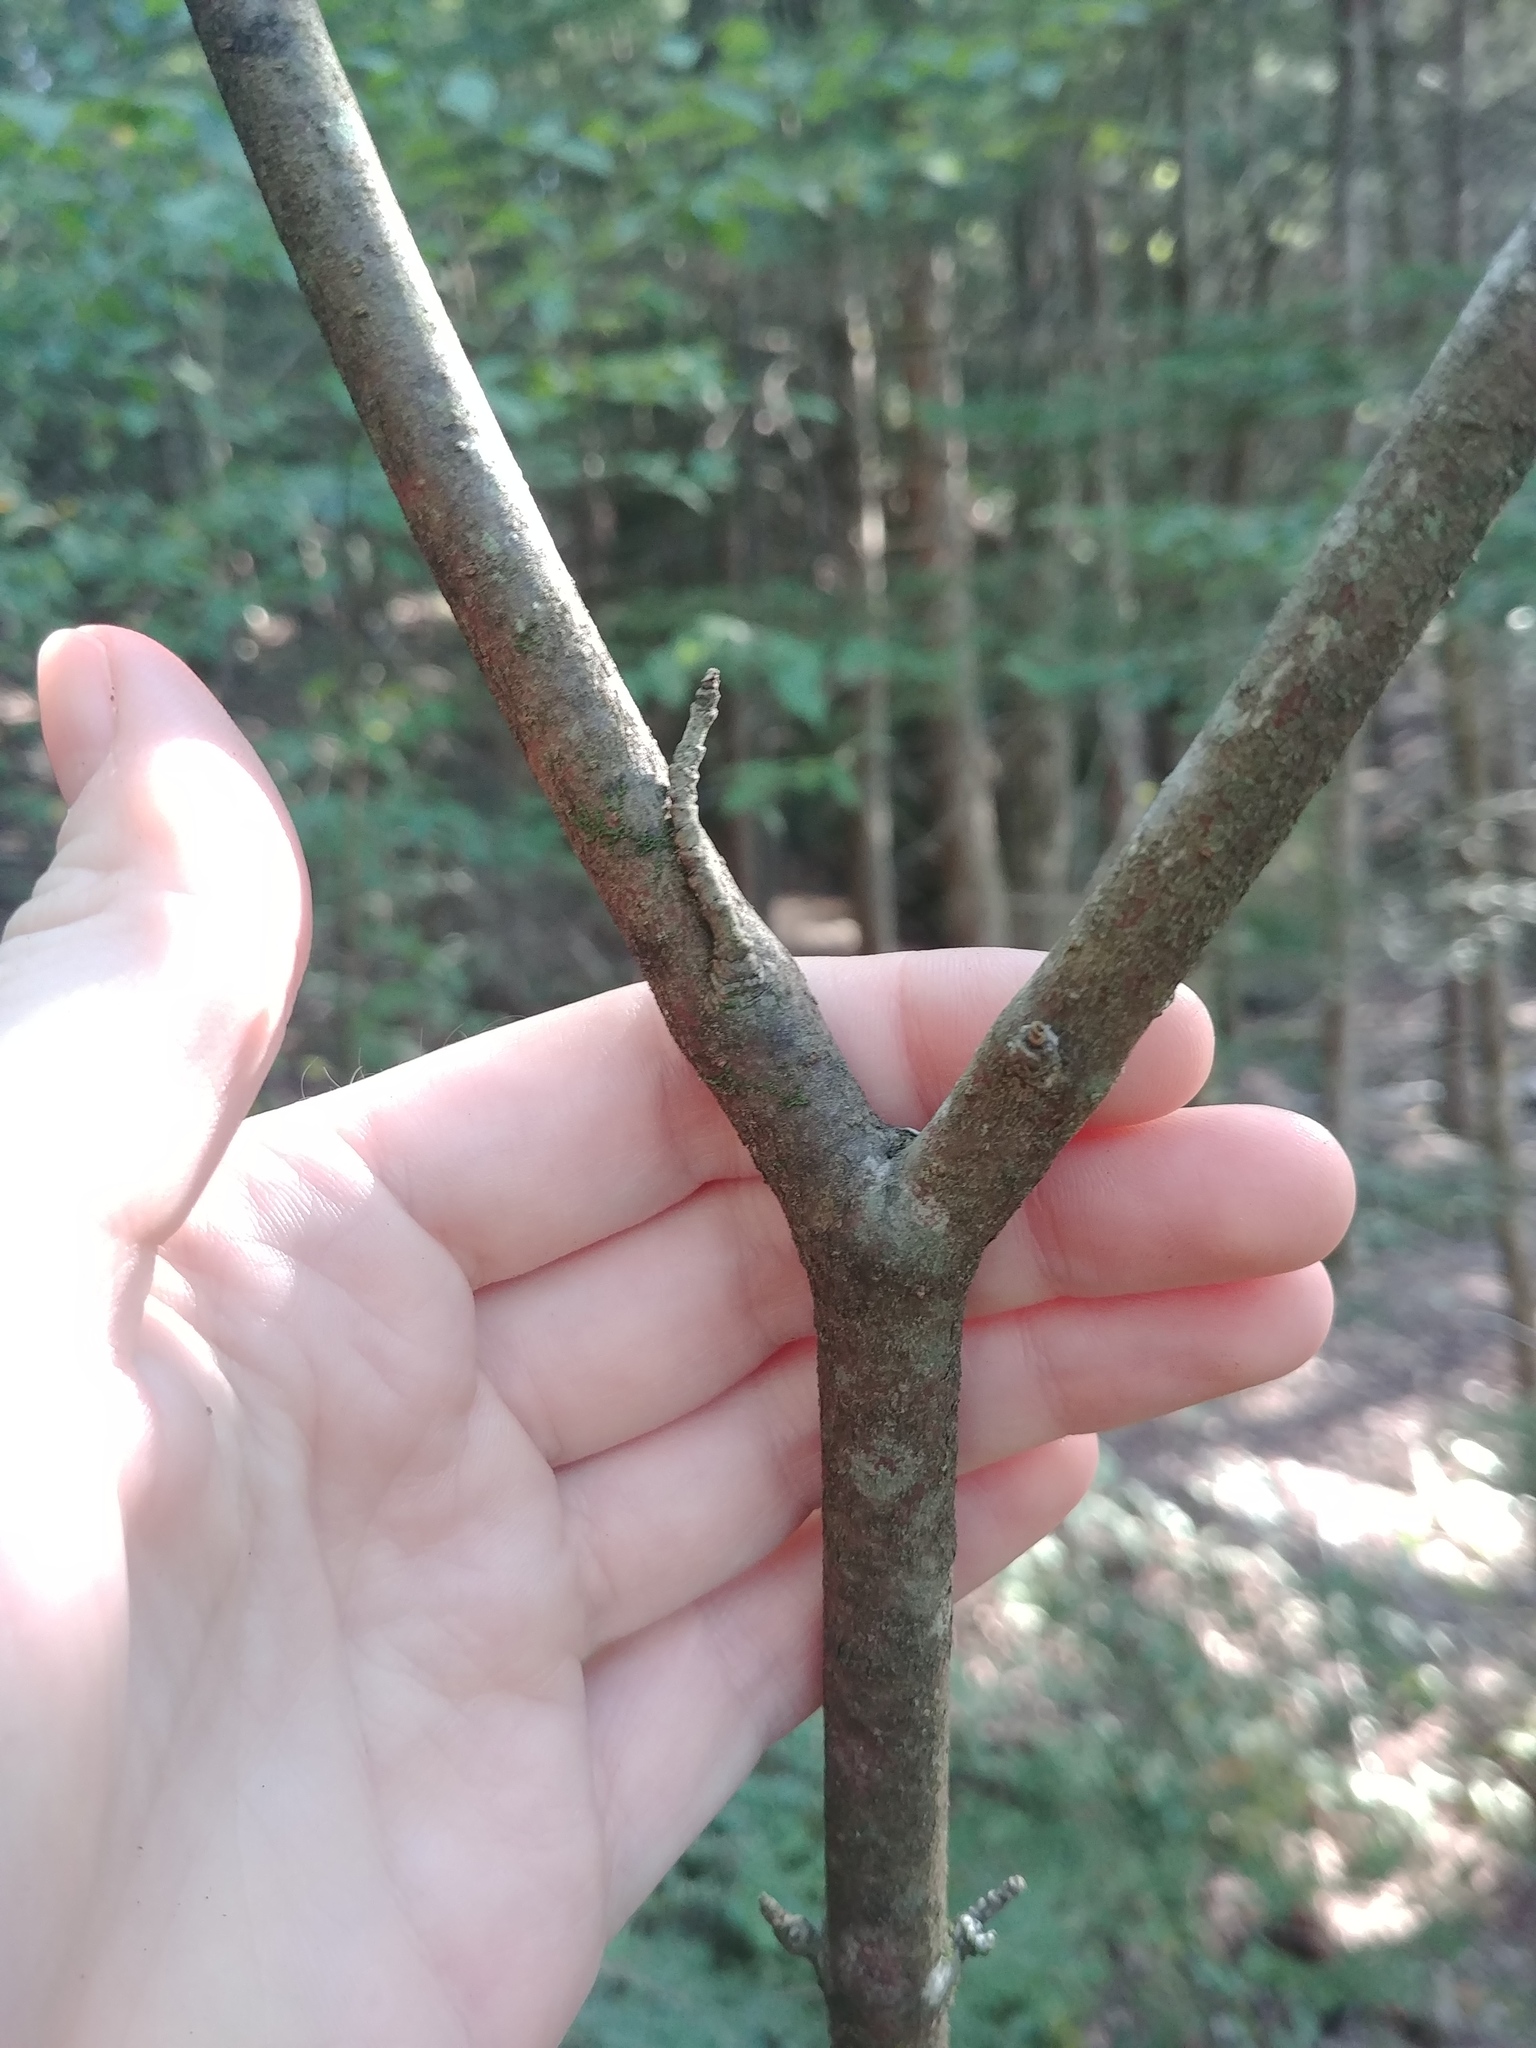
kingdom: Plantae
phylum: Tracheophyta
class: Magnoliopsida
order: Dipsacales
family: Viburnaceae
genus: Viburnum
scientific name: Viburnum cassinoides
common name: Swamp haw
